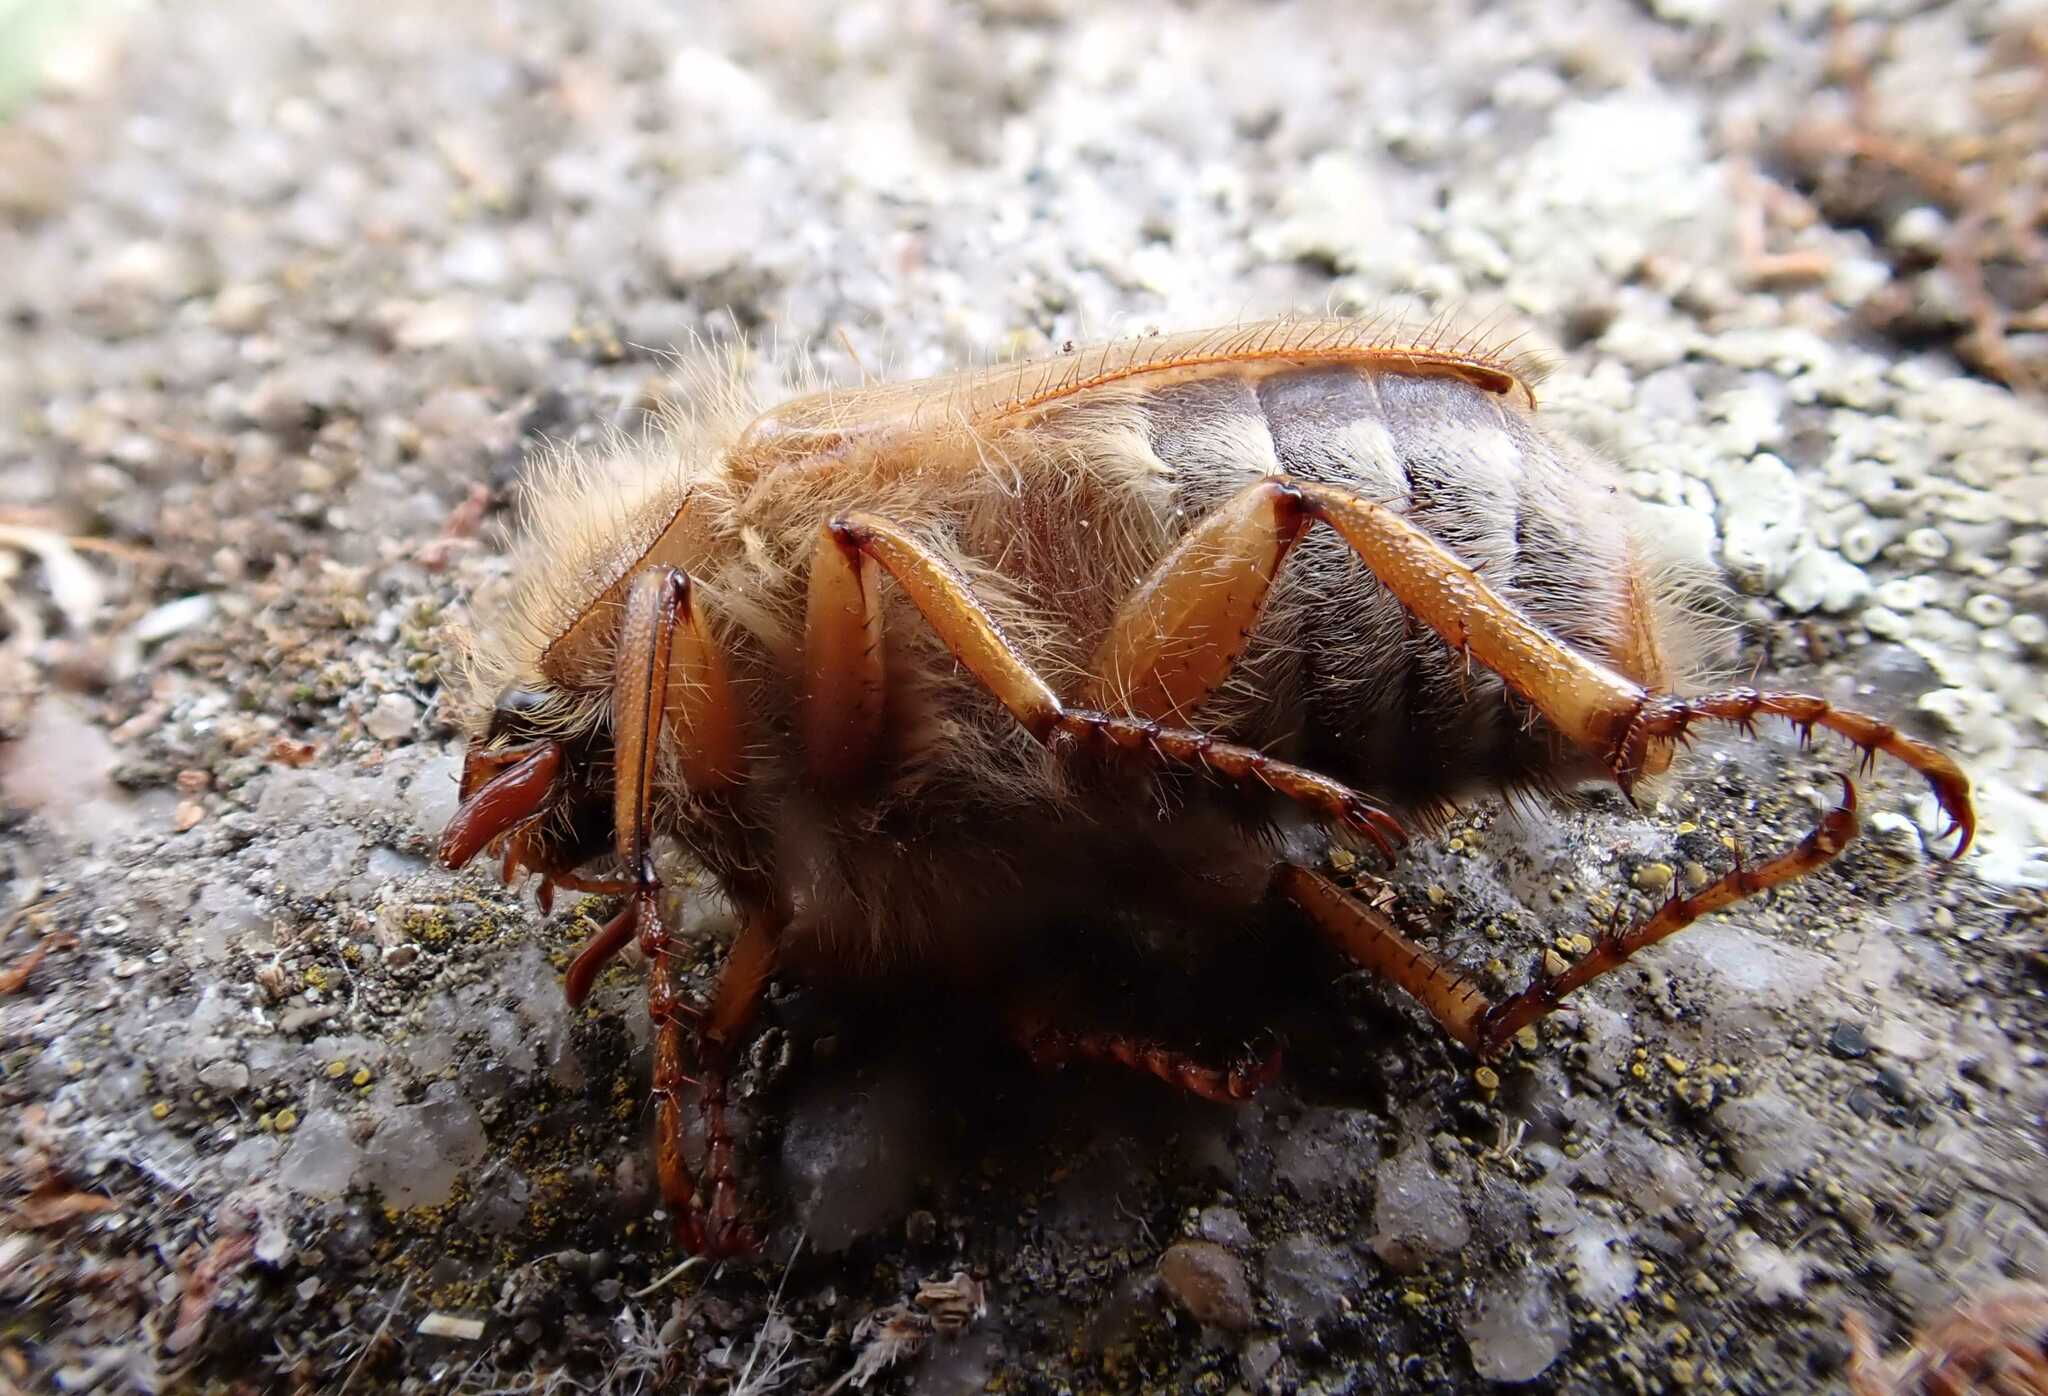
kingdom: Animalia
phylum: Arthropoda
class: Insecta
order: Coleoptera
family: Scarabaeidae
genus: Amphimallon
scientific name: Amphimallon solstitiale
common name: Summer chafer
